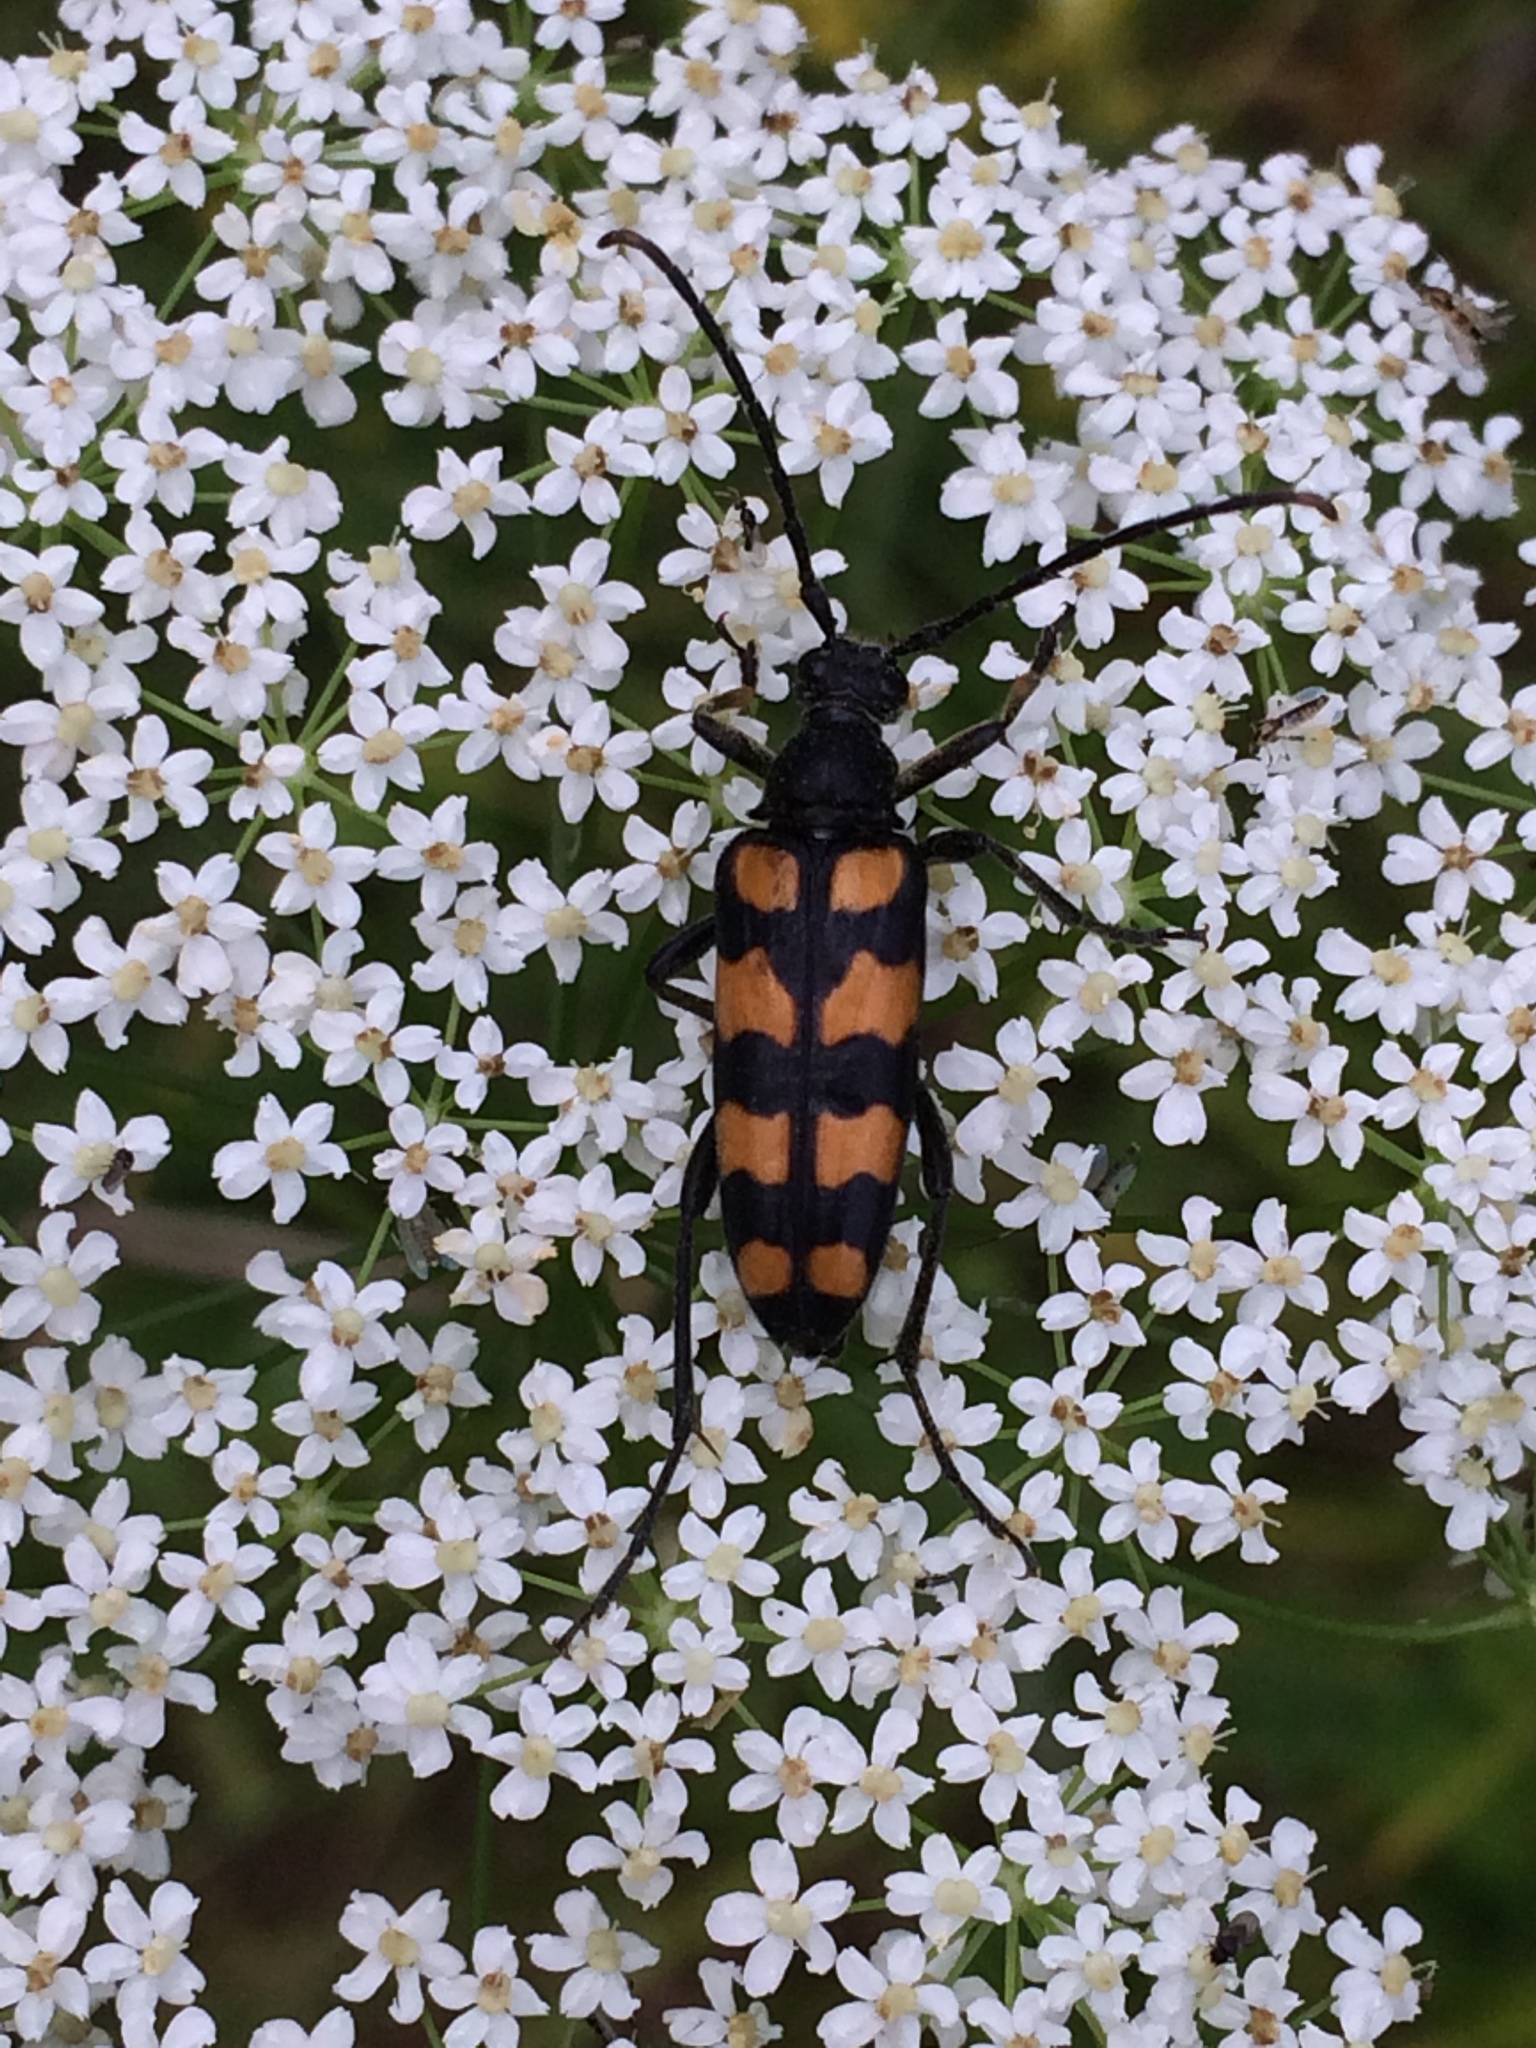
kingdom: Animalia
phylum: Arthropoda
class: Insecta
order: Coleoptera
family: Cerambycidae
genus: Leptura
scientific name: Leptura quadrifasciata
